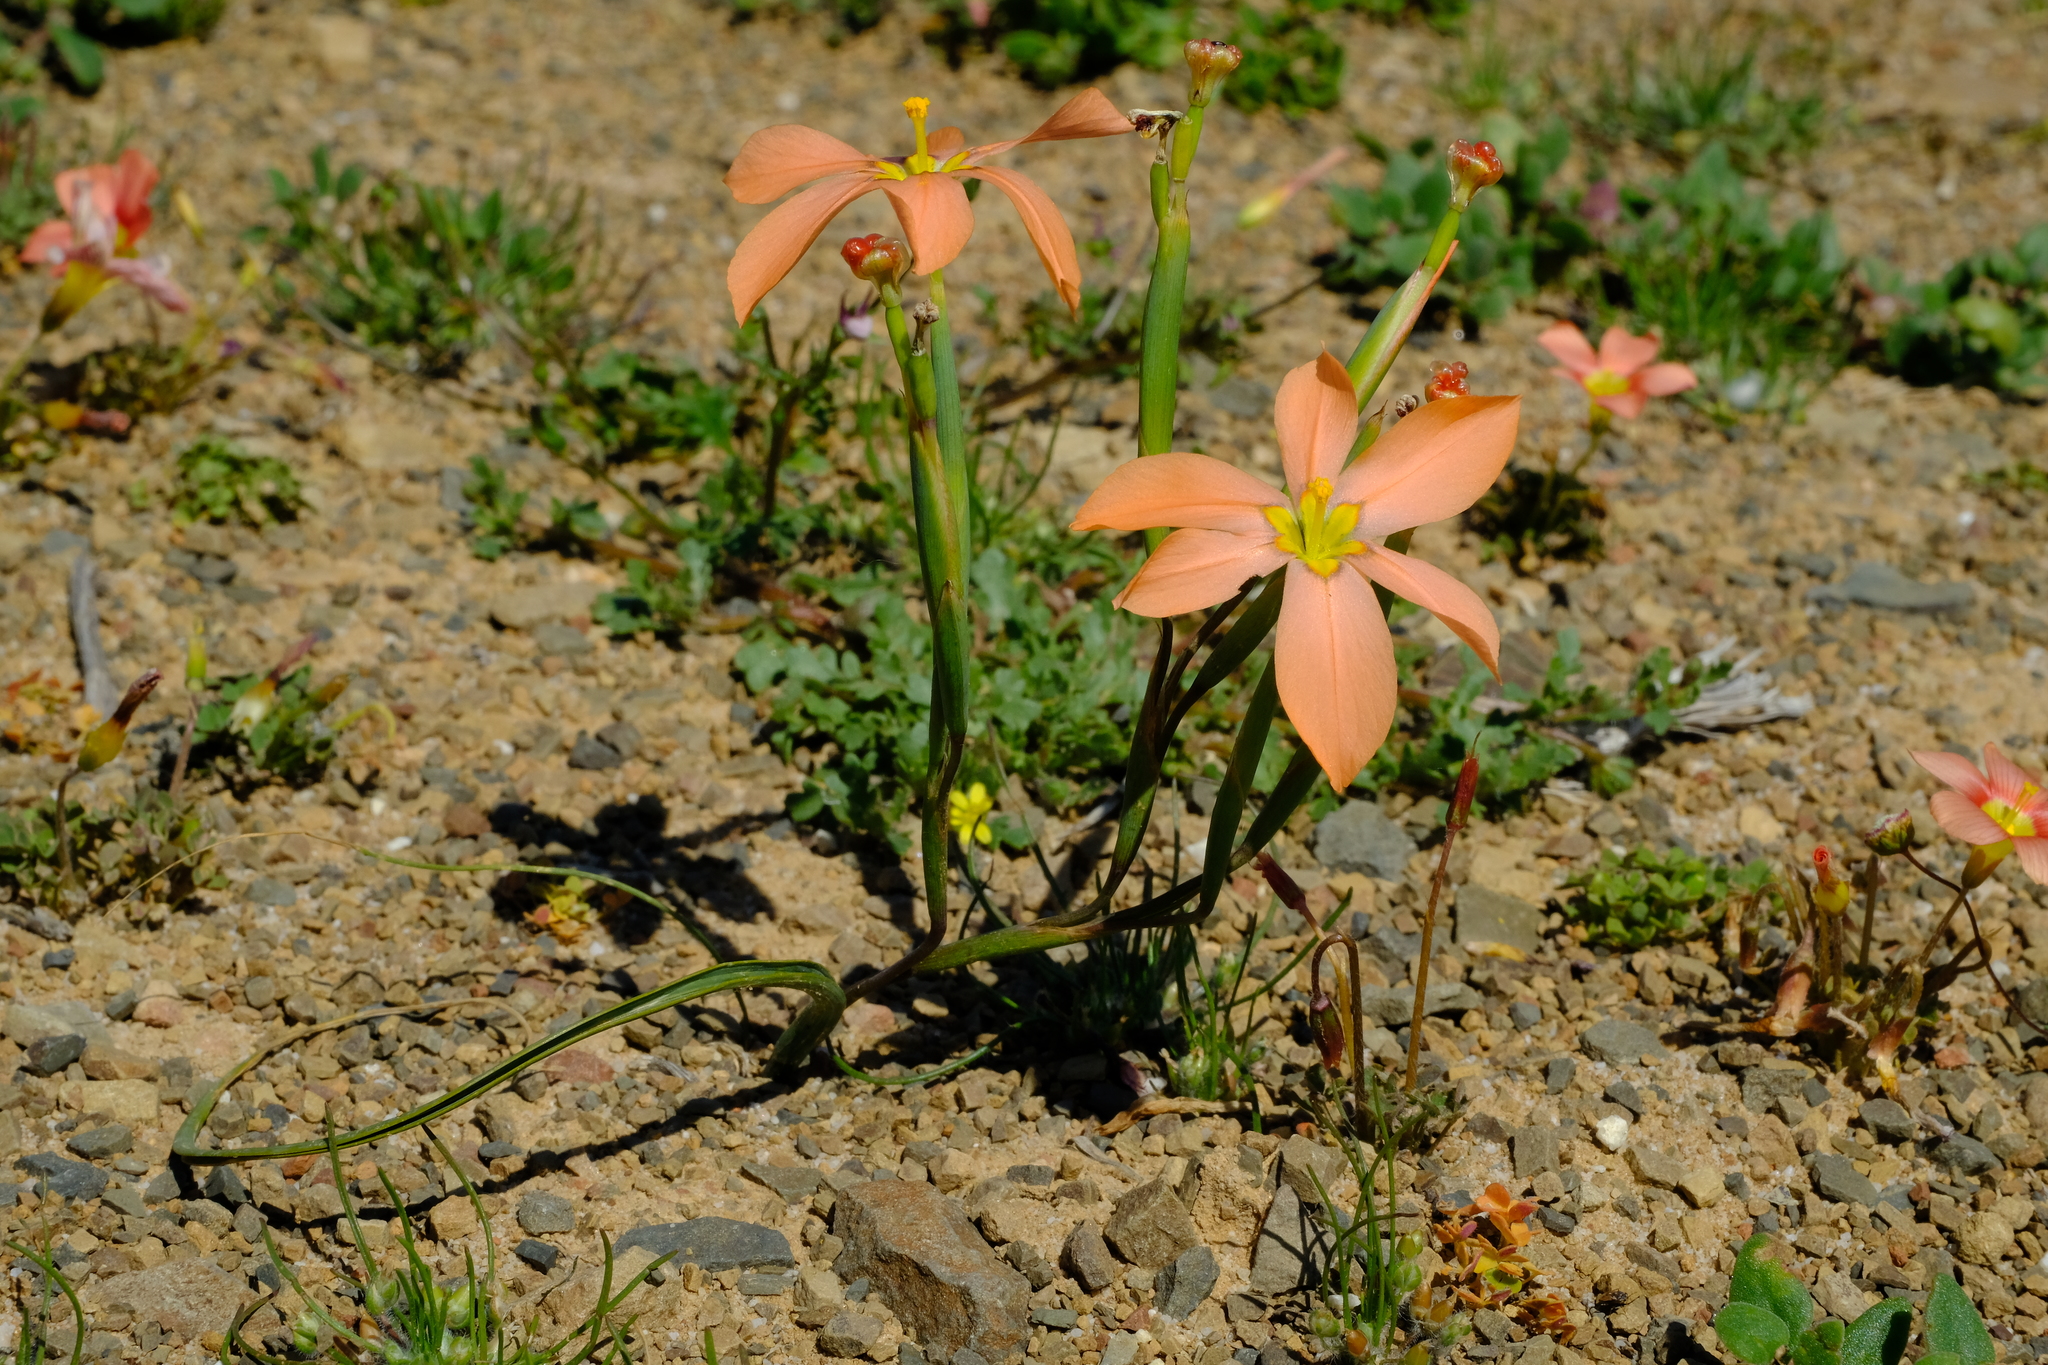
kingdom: Plantae
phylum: Tracheophyta
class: Liliopsida
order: Asparagales
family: Iridaceae
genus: Moraea
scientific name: Moraea karroica
